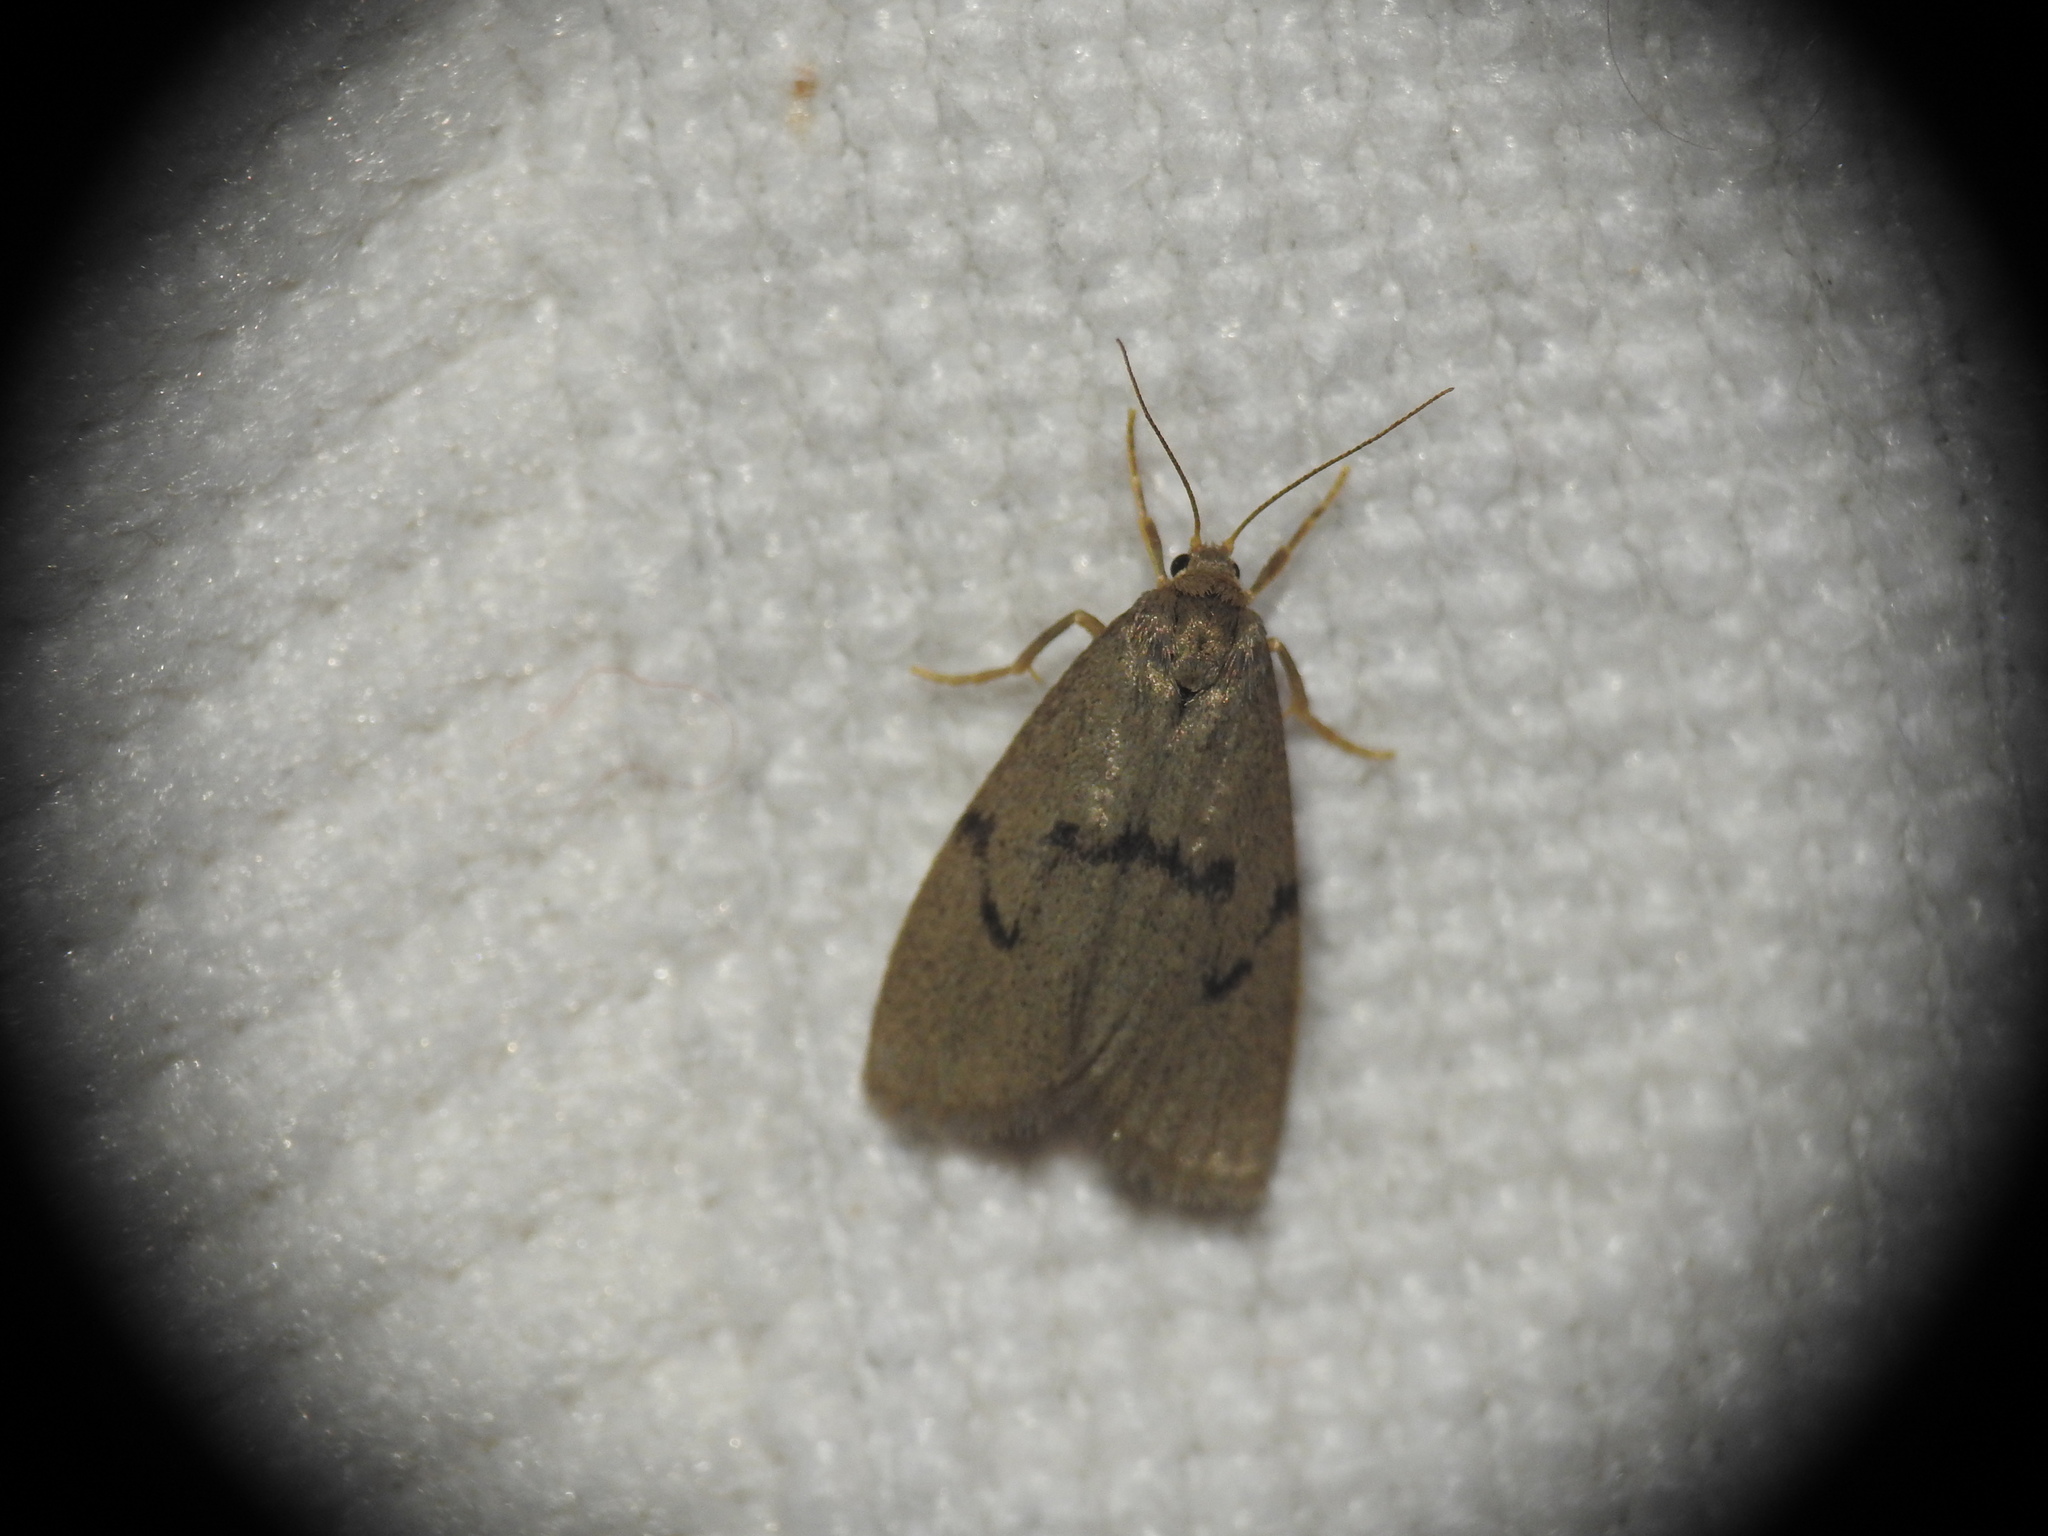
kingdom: Animalia
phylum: Arthropoda
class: Insecta
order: Lepidoptera
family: Erebidae
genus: Apaidia
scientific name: Apaidia mesogona
